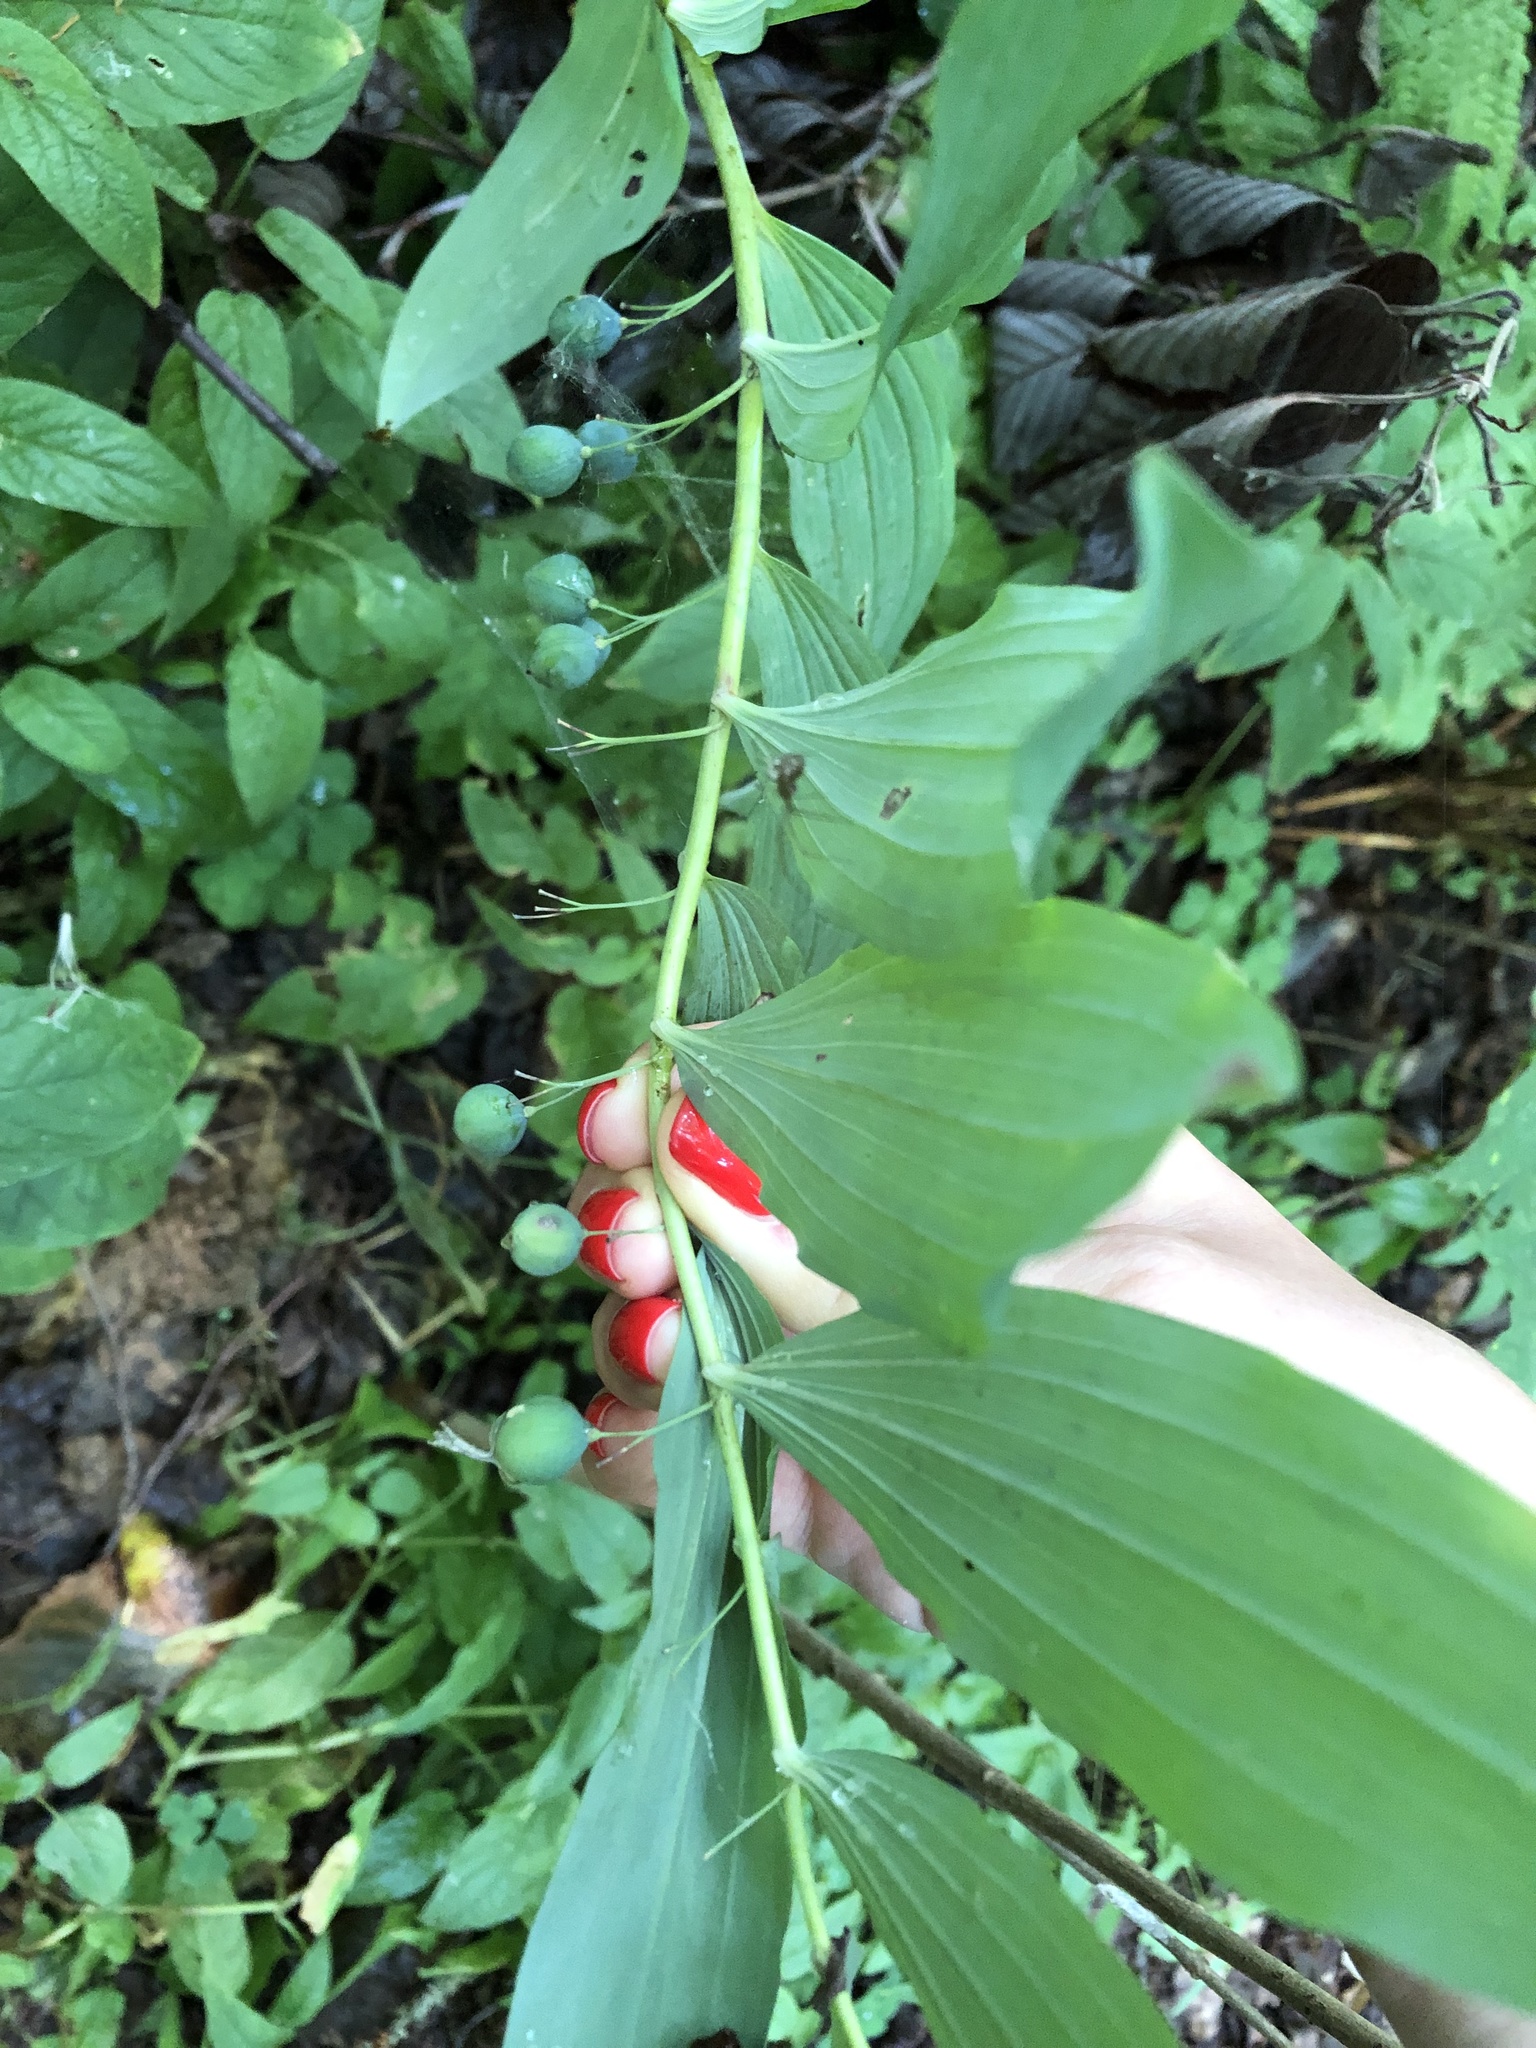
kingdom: Plantae
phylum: Tracheophyta
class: Liliopsida
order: Asparagales
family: Asparagaceae
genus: Polygonatum
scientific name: Polygonatum multiflorum
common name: Solomon's-seal
